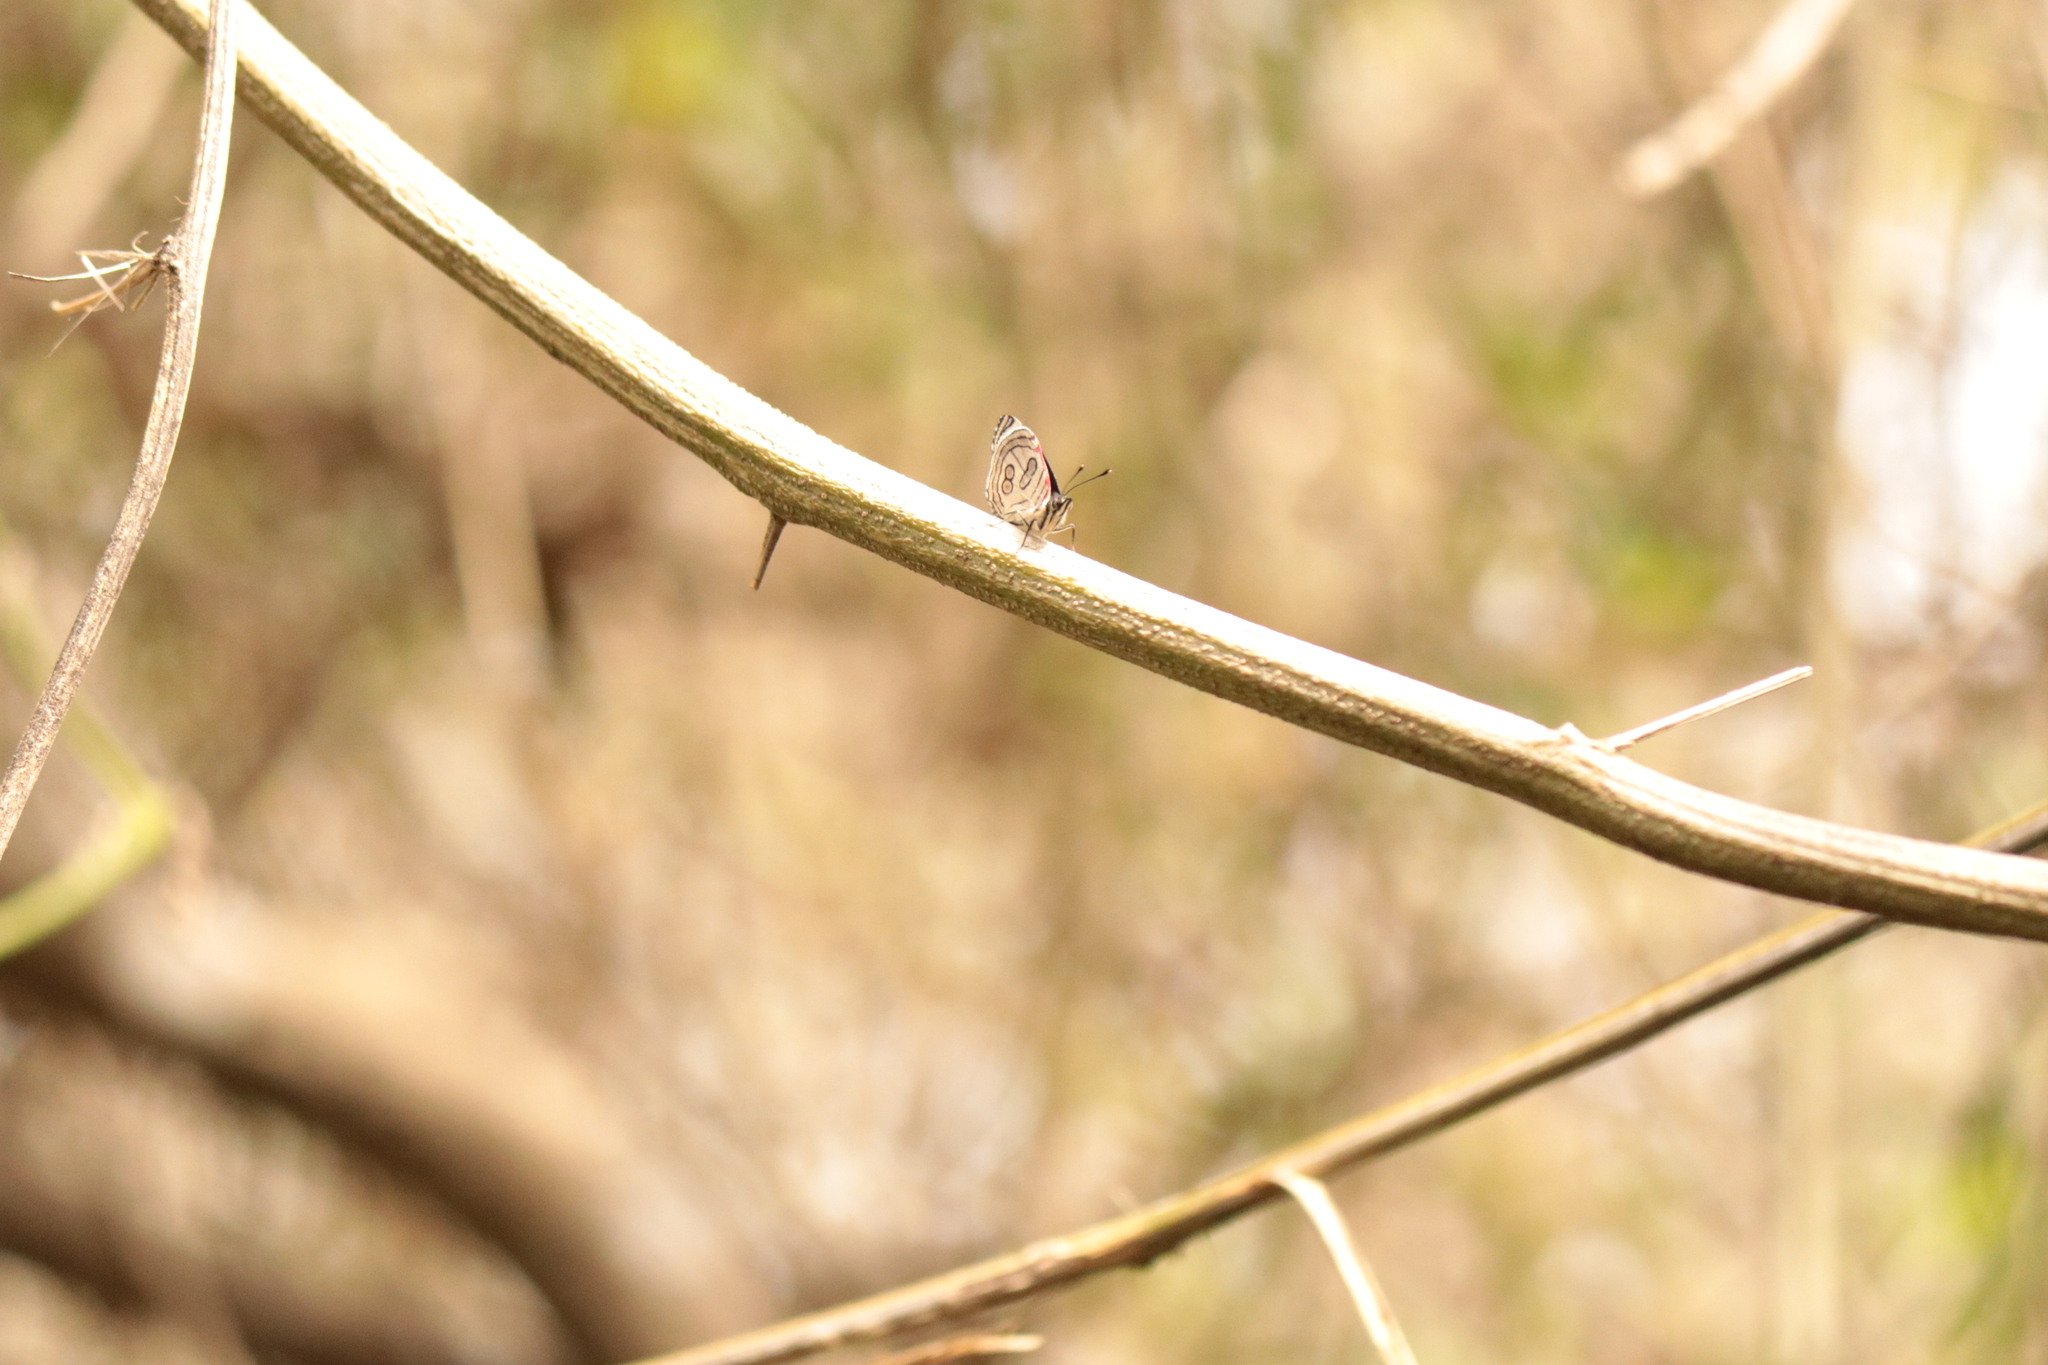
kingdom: Animalia
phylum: Arthropoda
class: Insecta
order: Lepidoptera
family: Nymphalidae
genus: Diaethria
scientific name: Diaethria candrena
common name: Number eighty
